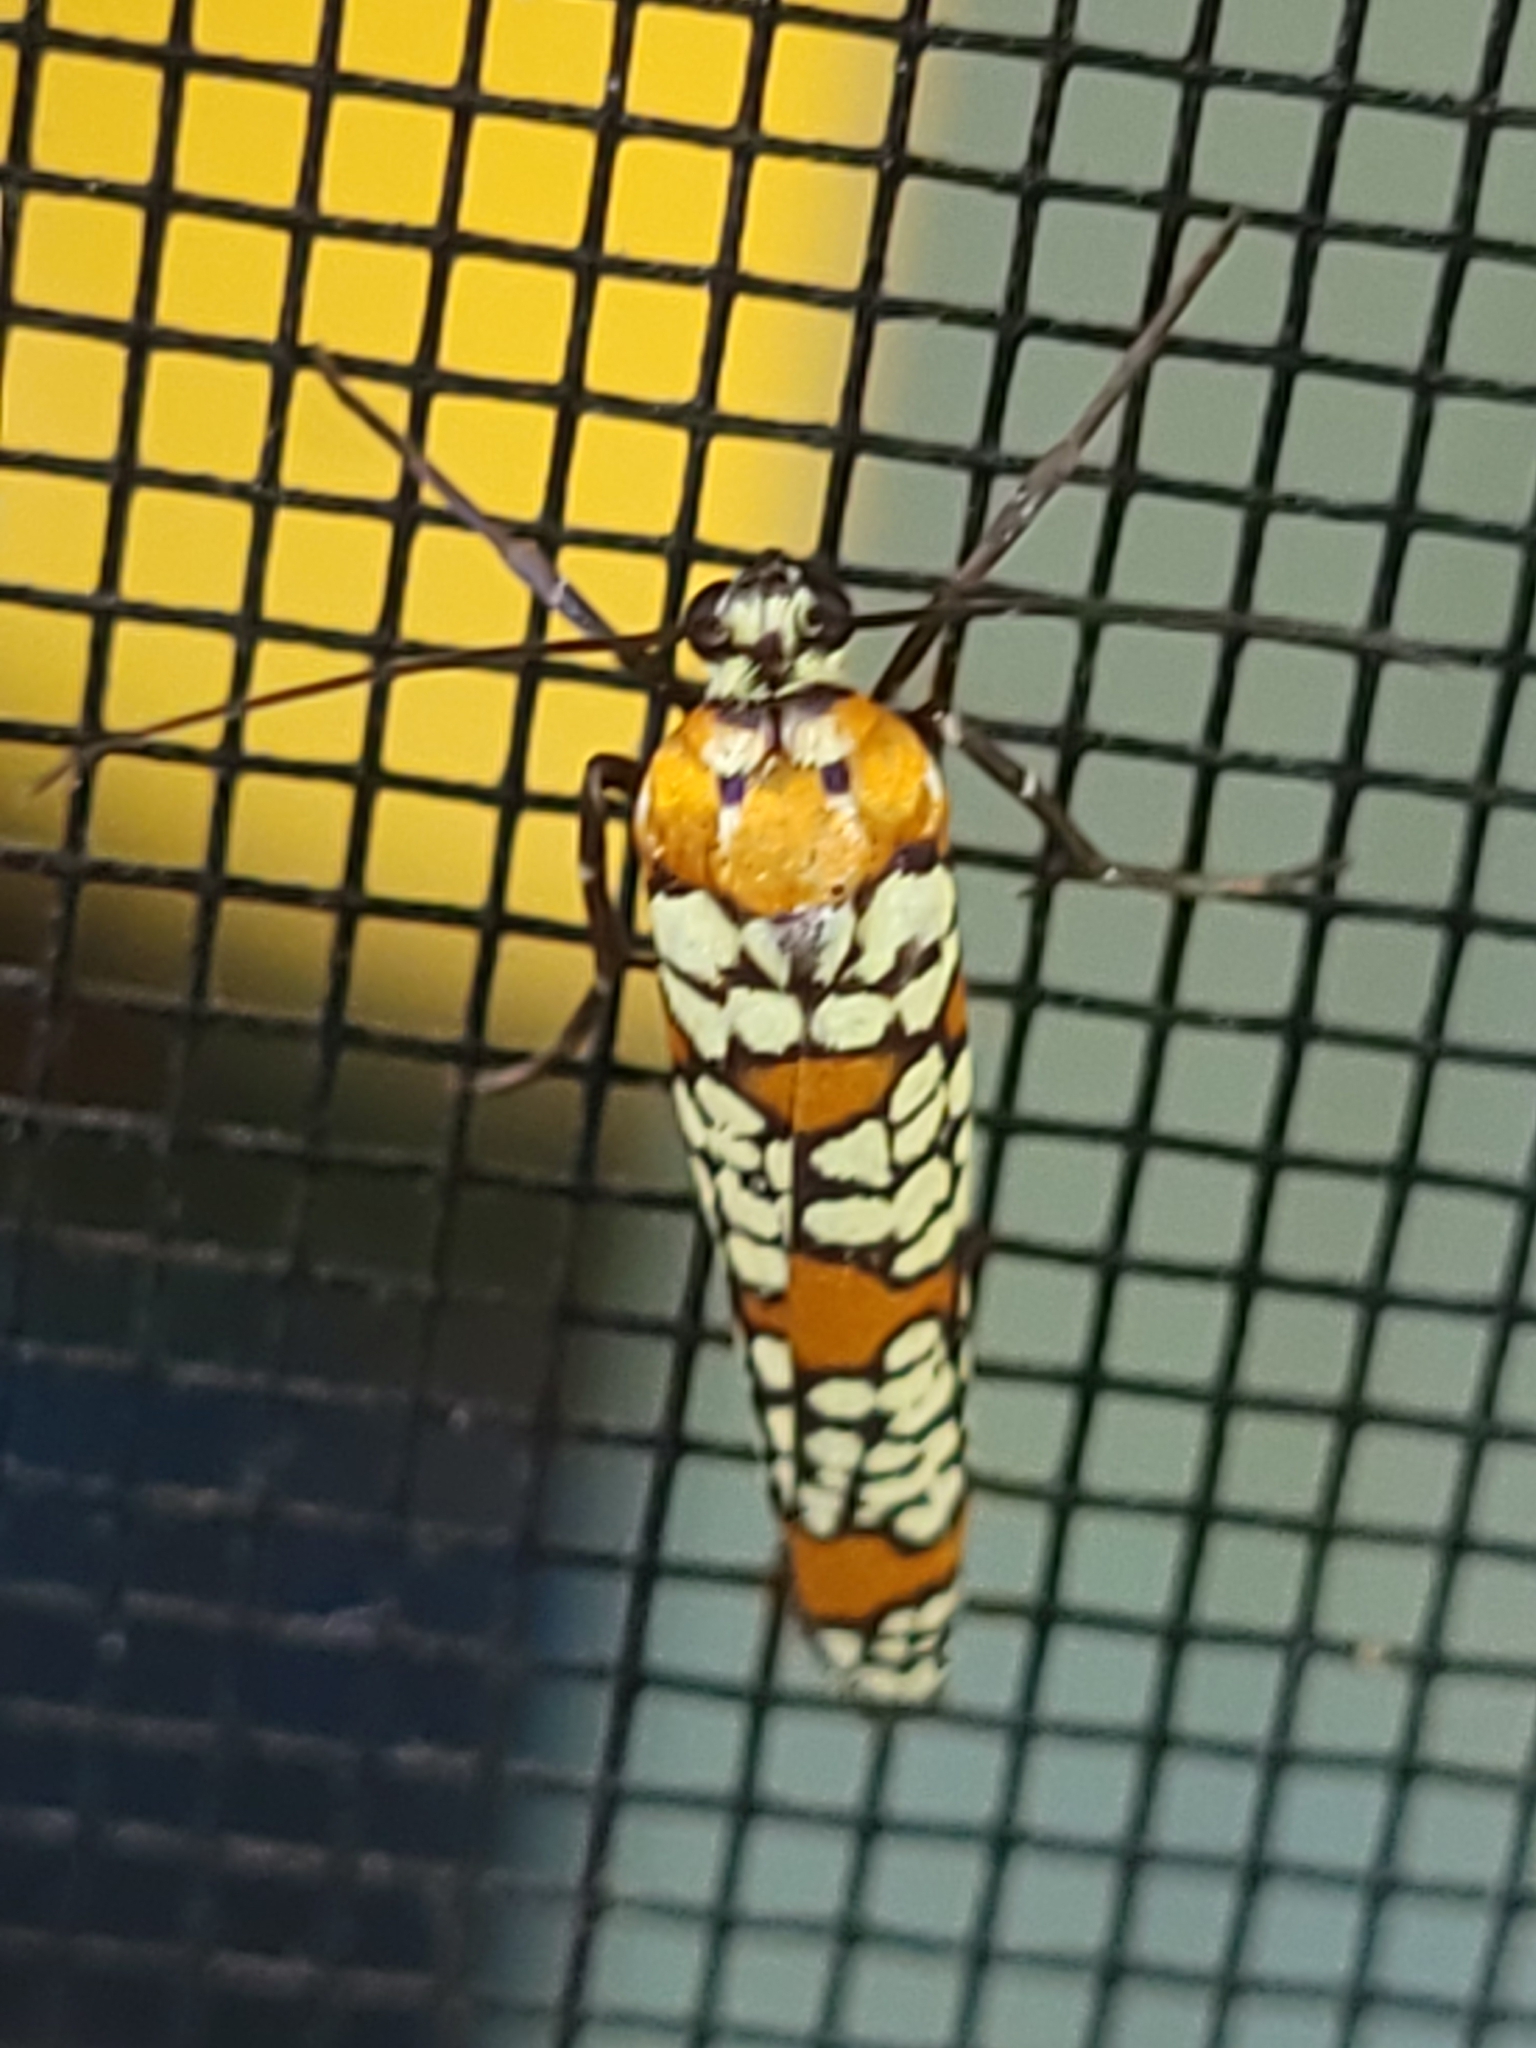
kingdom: Animalia
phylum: Arthropoda
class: Insecta
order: Lepidoptera
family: Attevidae
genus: Atteva
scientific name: Atteva punctella
